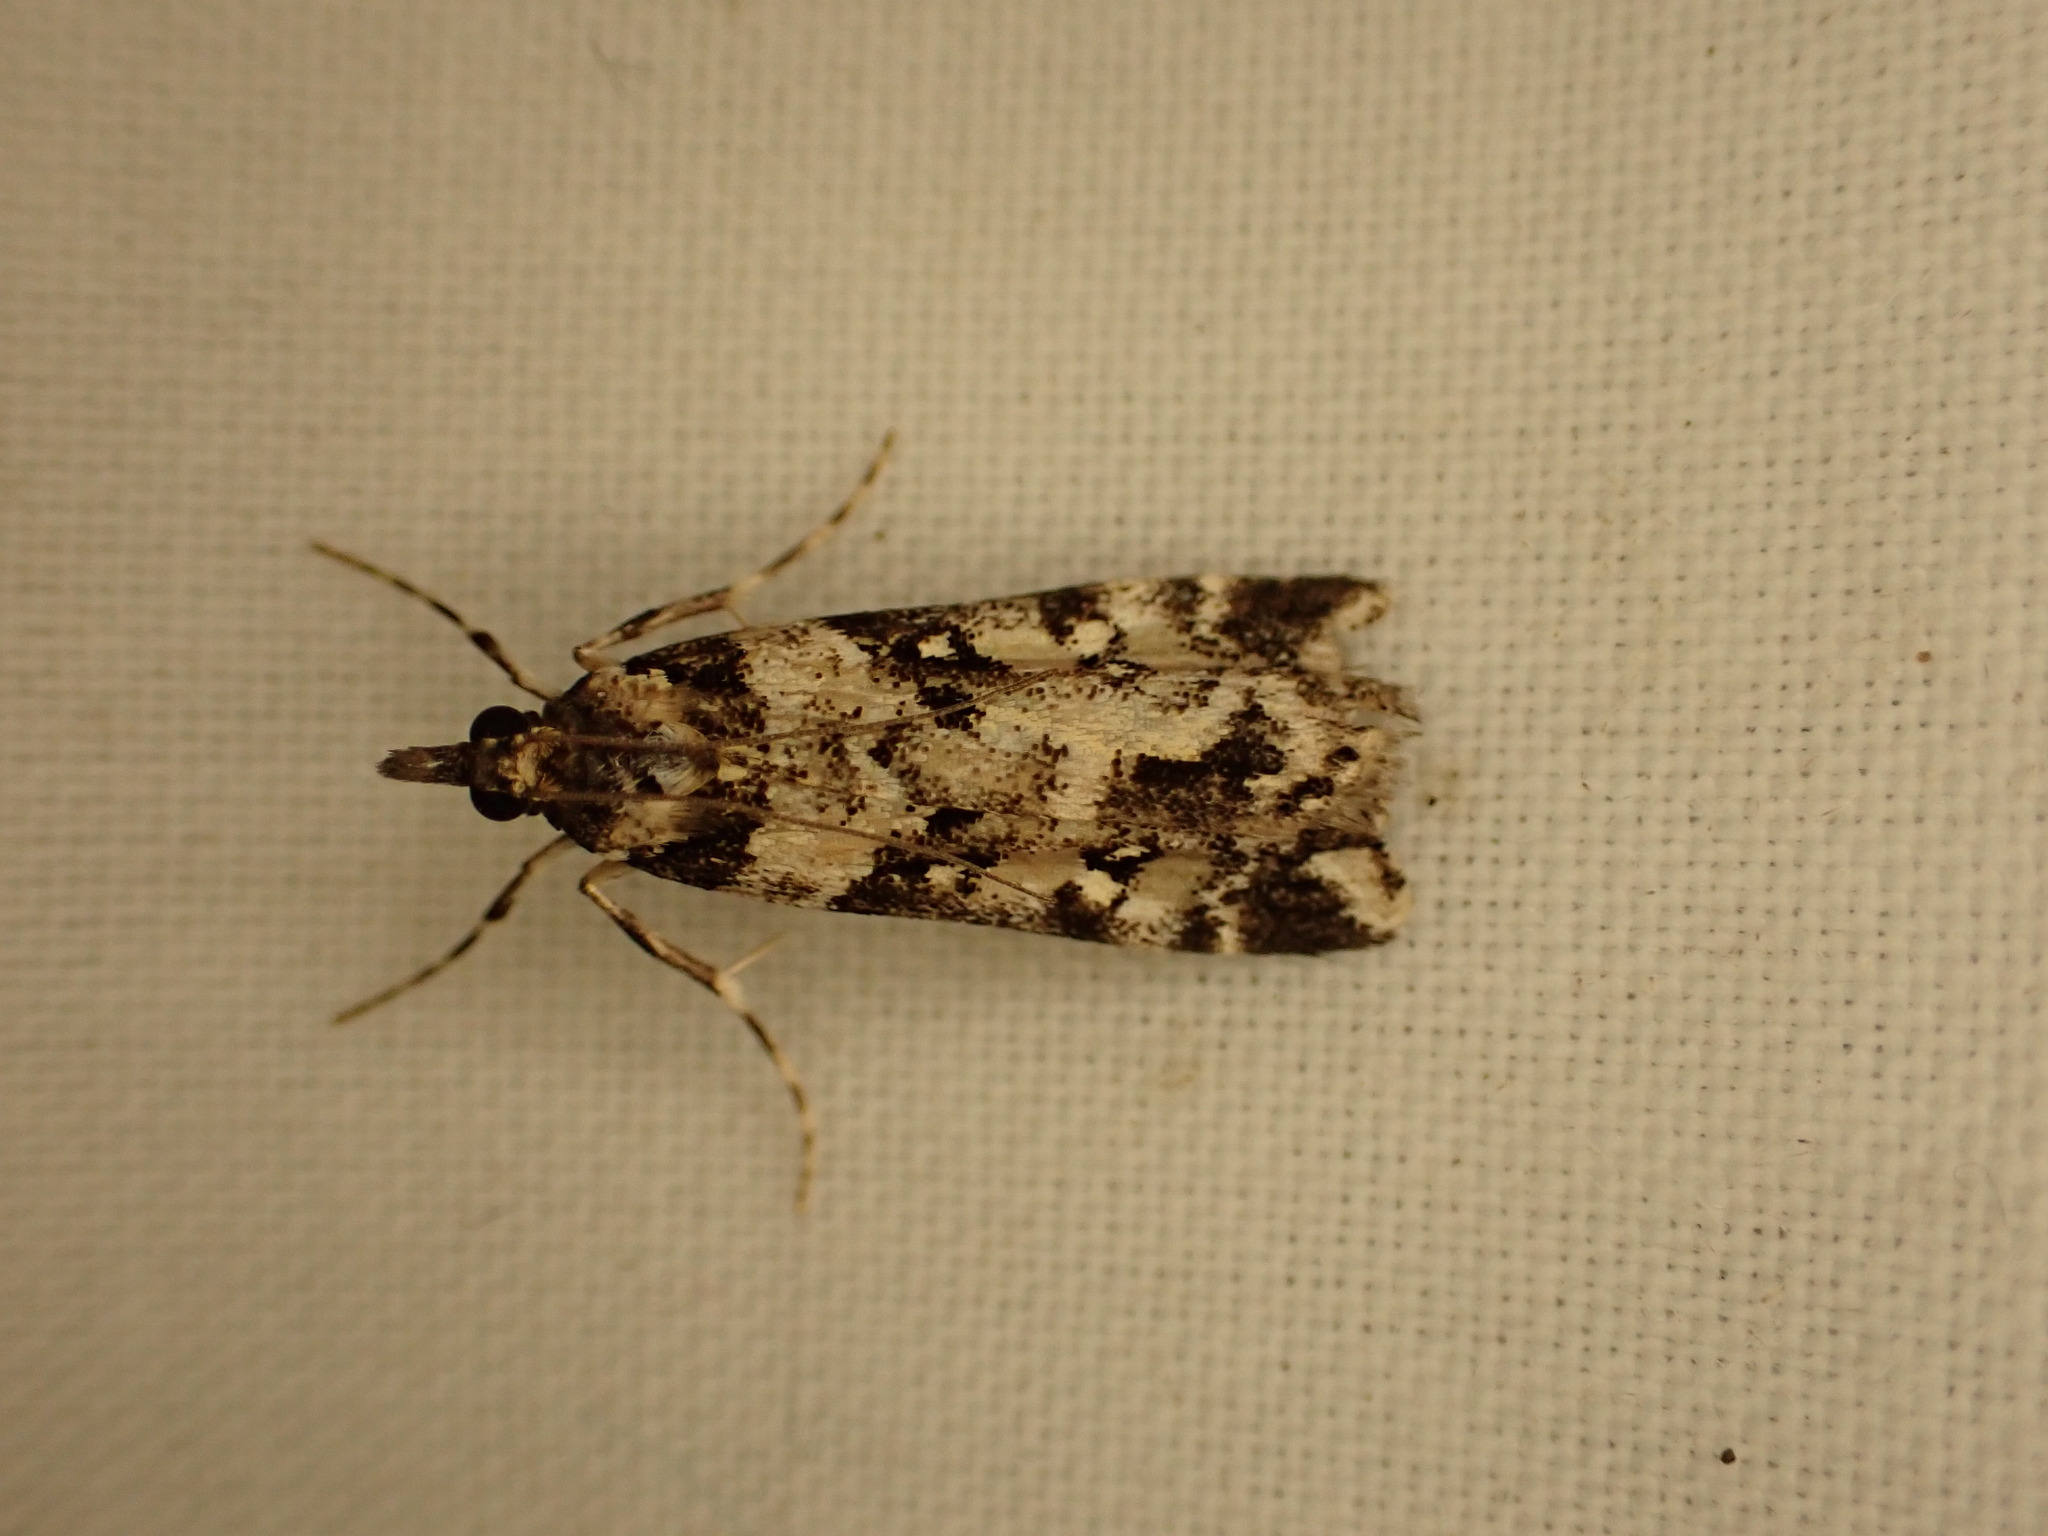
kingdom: Animalia
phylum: Arthropoda
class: Insecta
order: Lepidoptera
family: Crambidae
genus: Eudonia
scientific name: Eudonia diphtheralis
